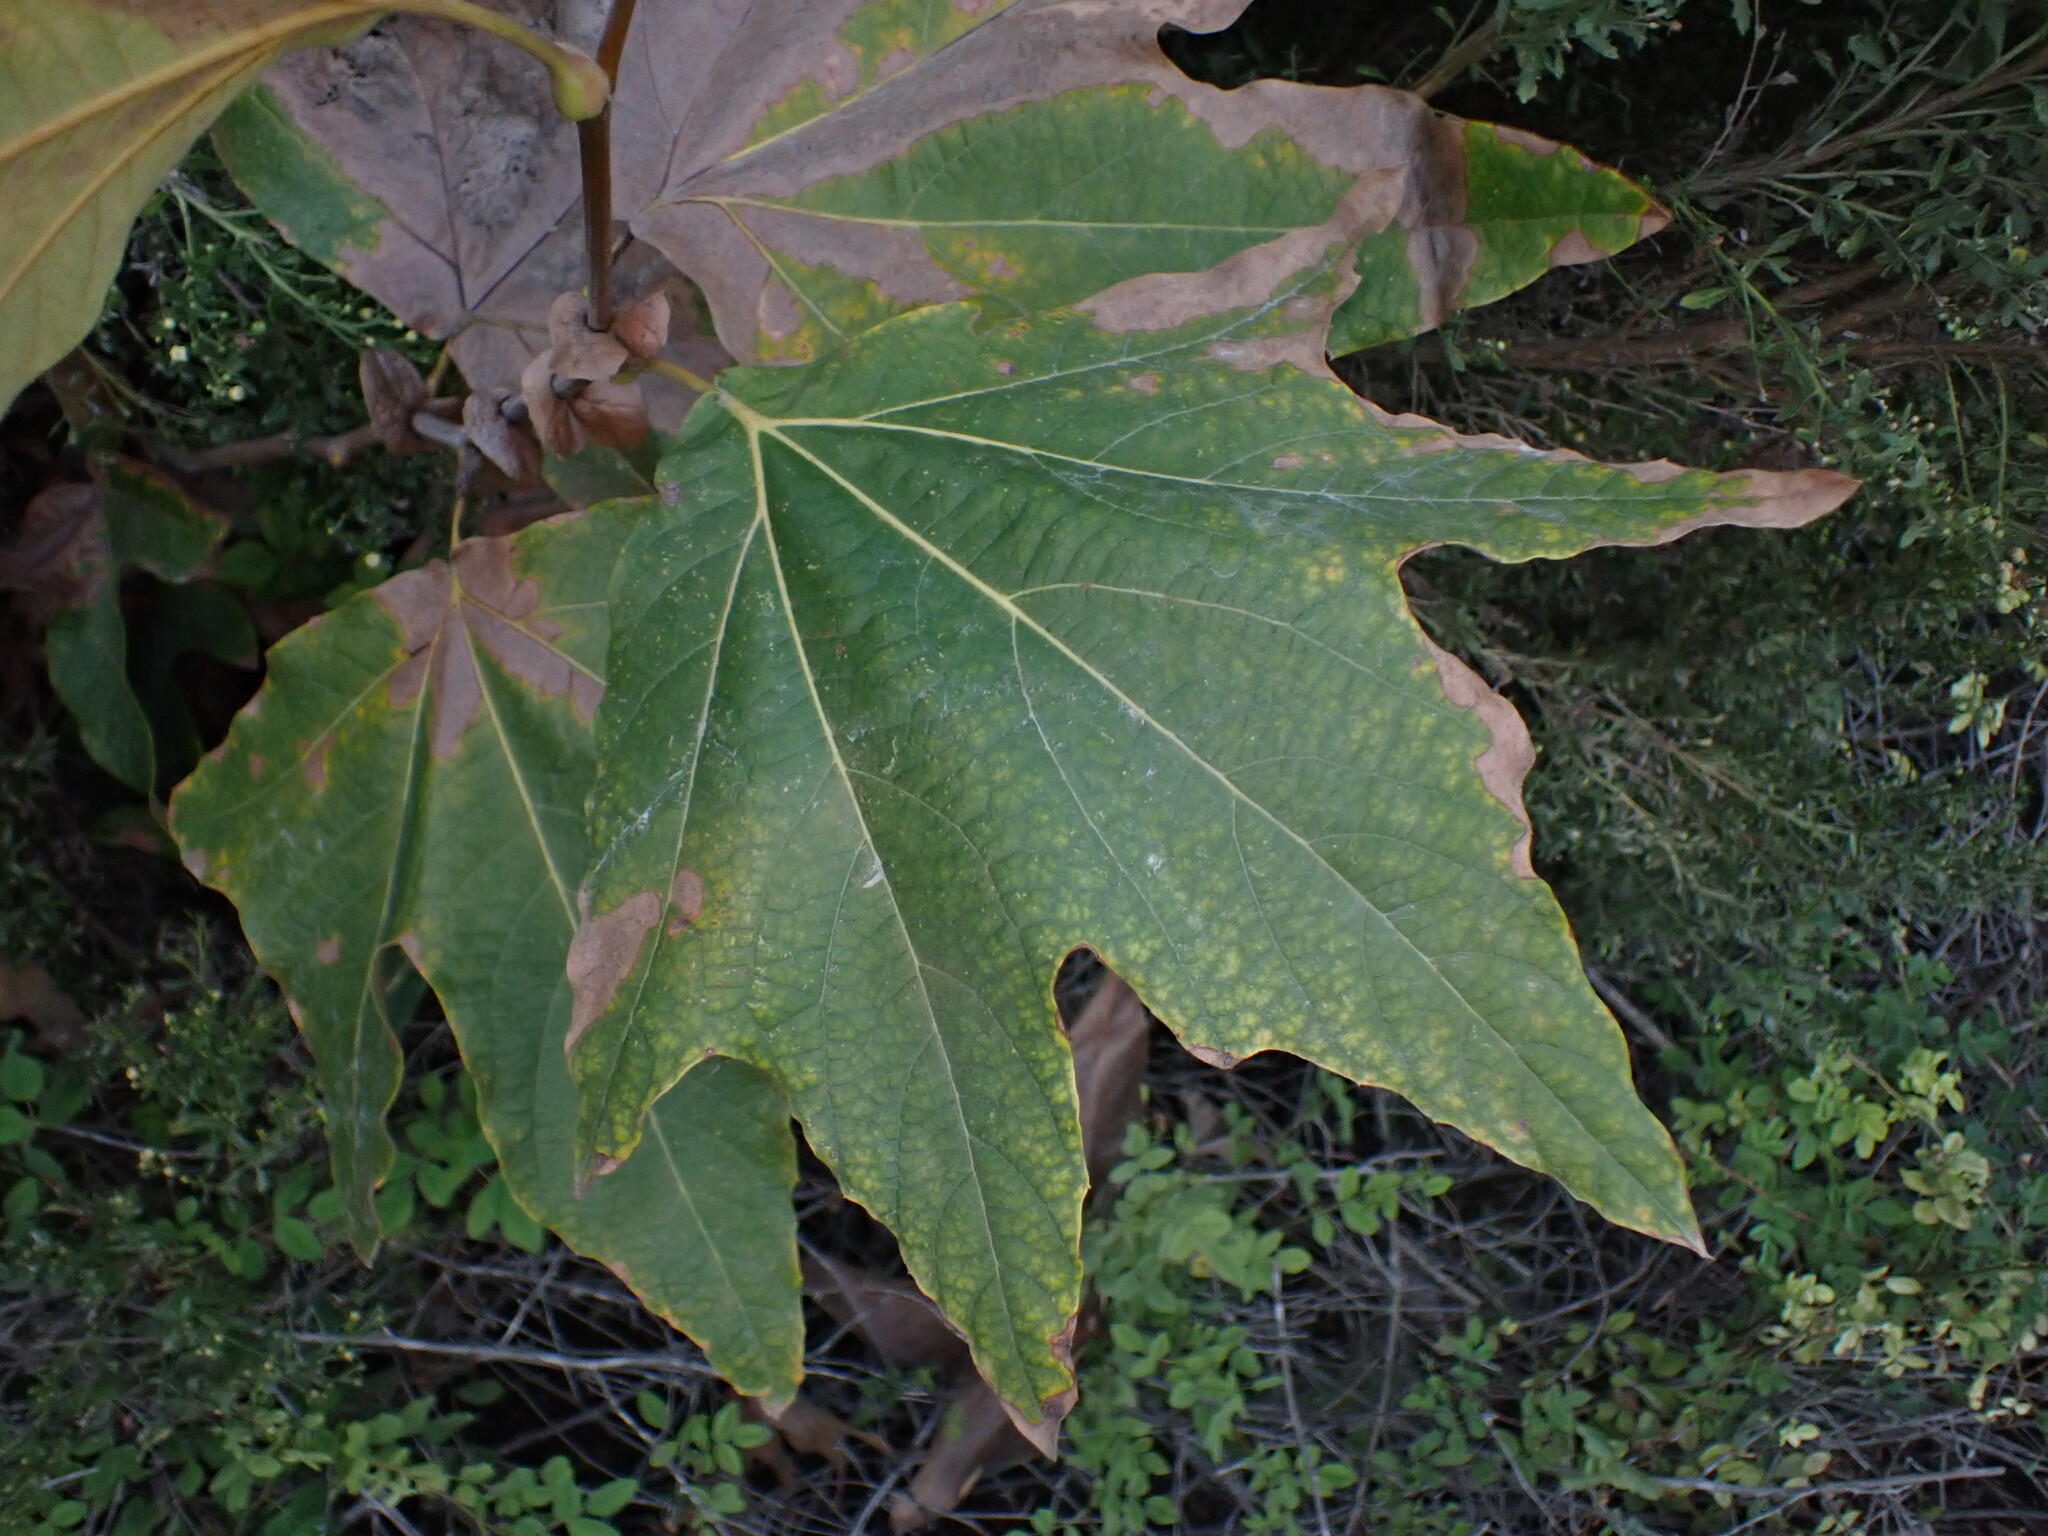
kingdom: Plantae
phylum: Tracheophyta
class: Magnoliopsida
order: Proteales
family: Platanaceae
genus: Platanus
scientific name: Platanus racemosa
